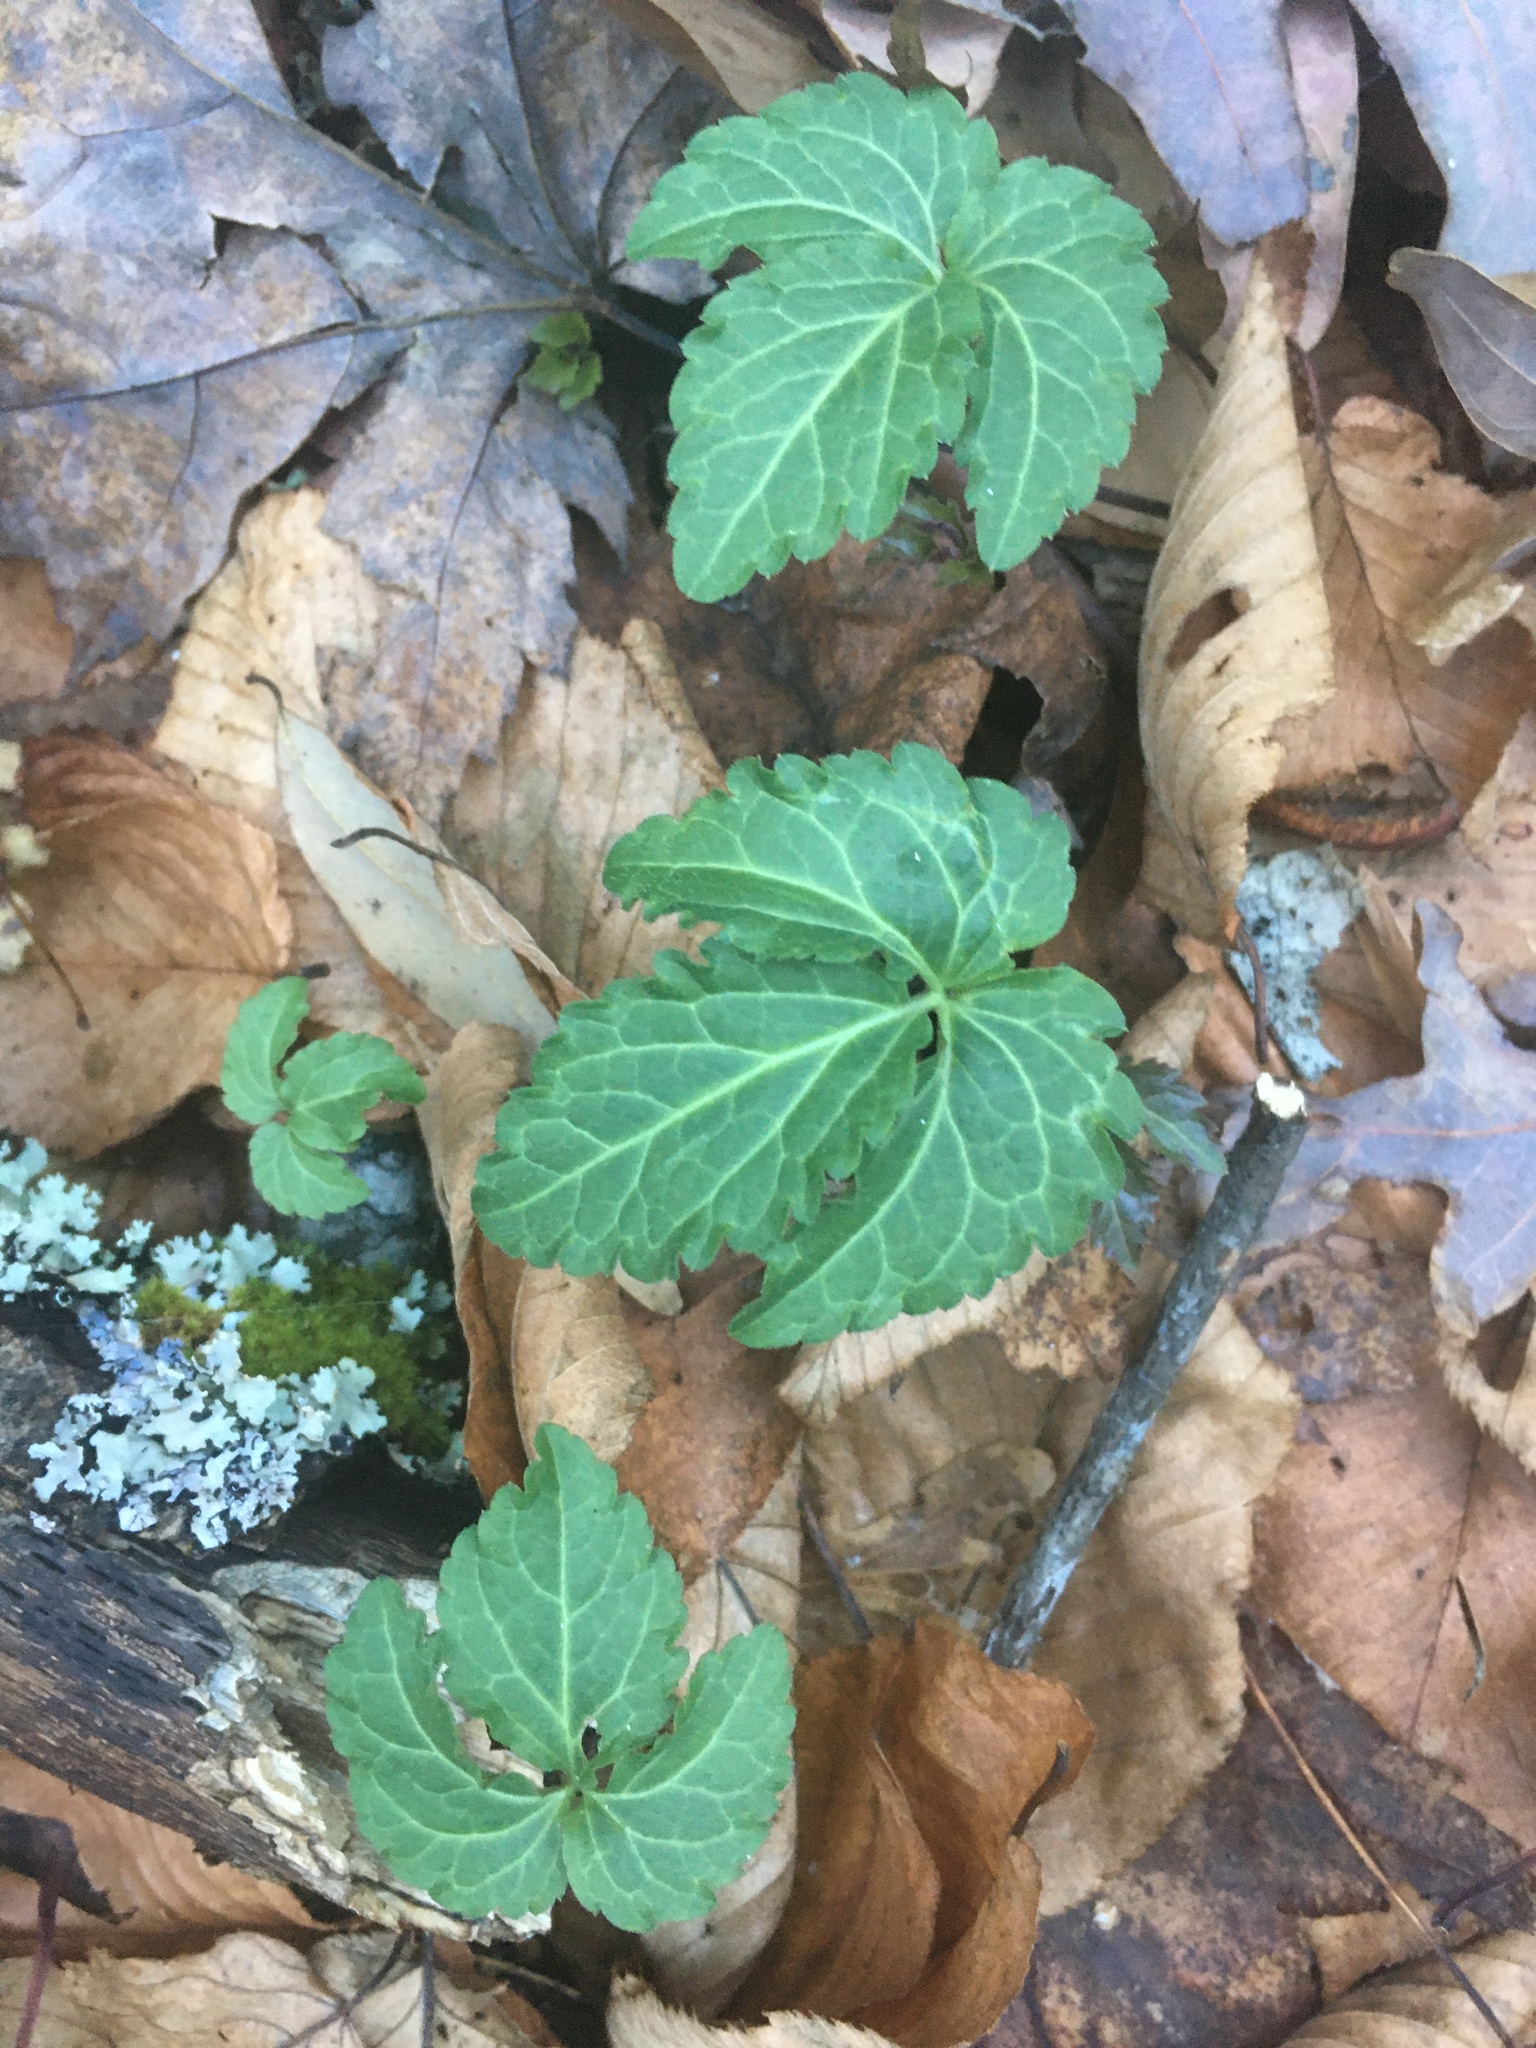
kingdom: Plantae
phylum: Tracheophyta
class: Magnoliopsida
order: Brassicales
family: Brassicaceae
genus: Cardamine
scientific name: Cardamine diphylla
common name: Broad-leaved toothwort
